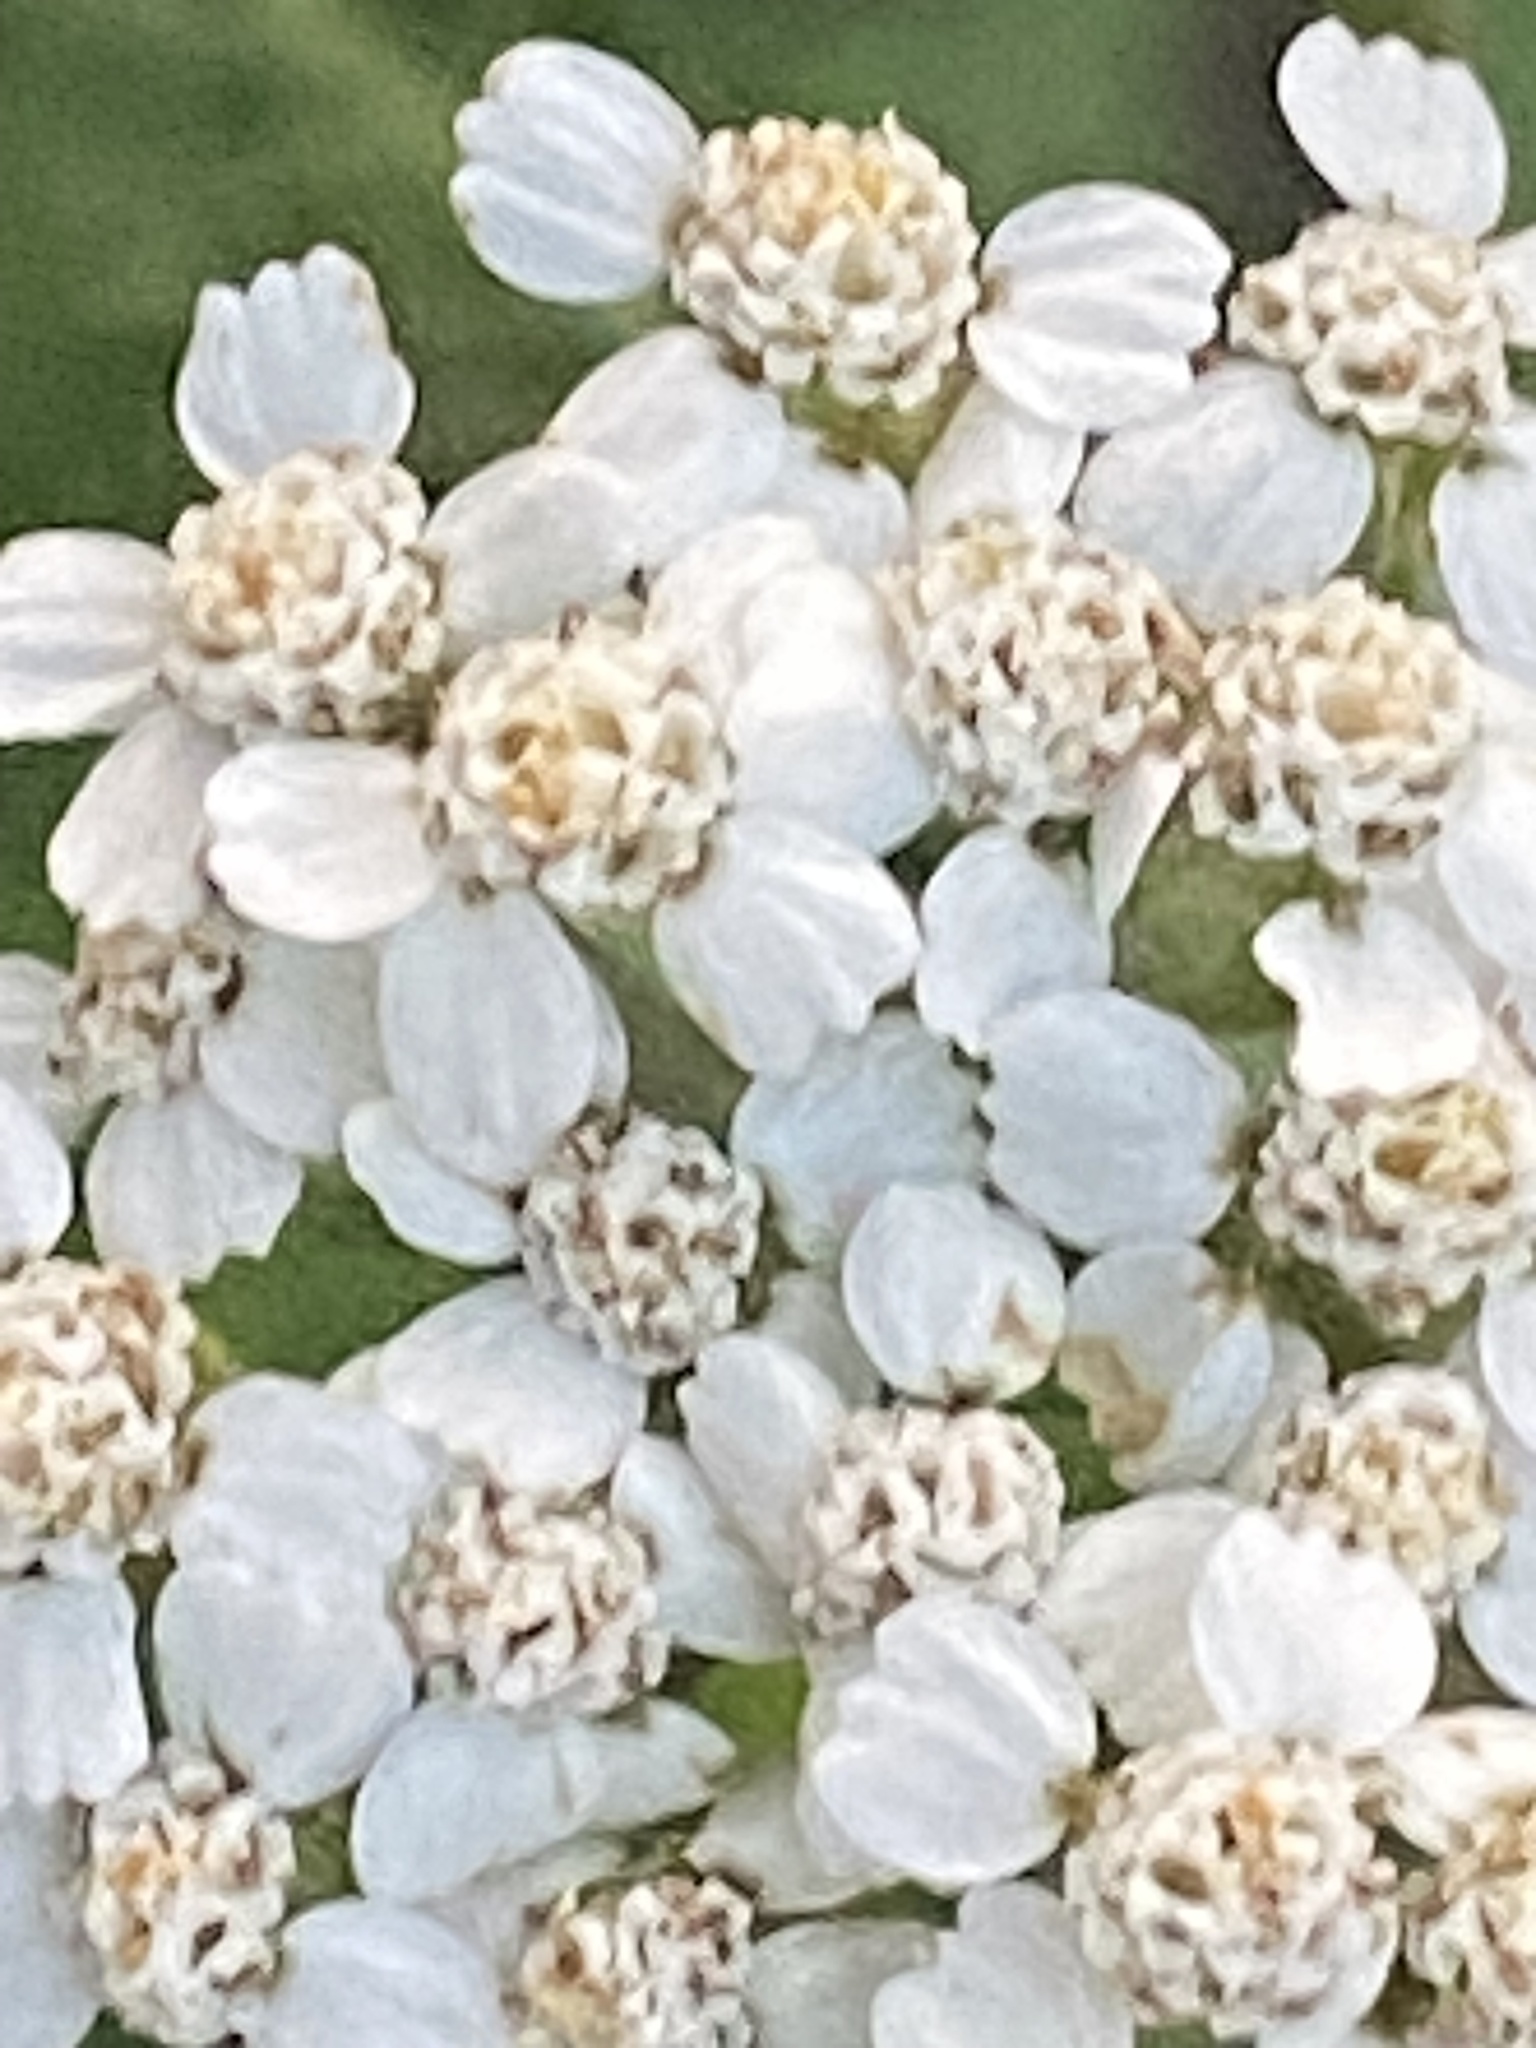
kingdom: Plantae
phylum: Tracheophyta
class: Magnoliopsida
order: Asterales
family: Asteraceae
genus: Achillea
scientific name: Achillea millefolium
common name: Yarrow
